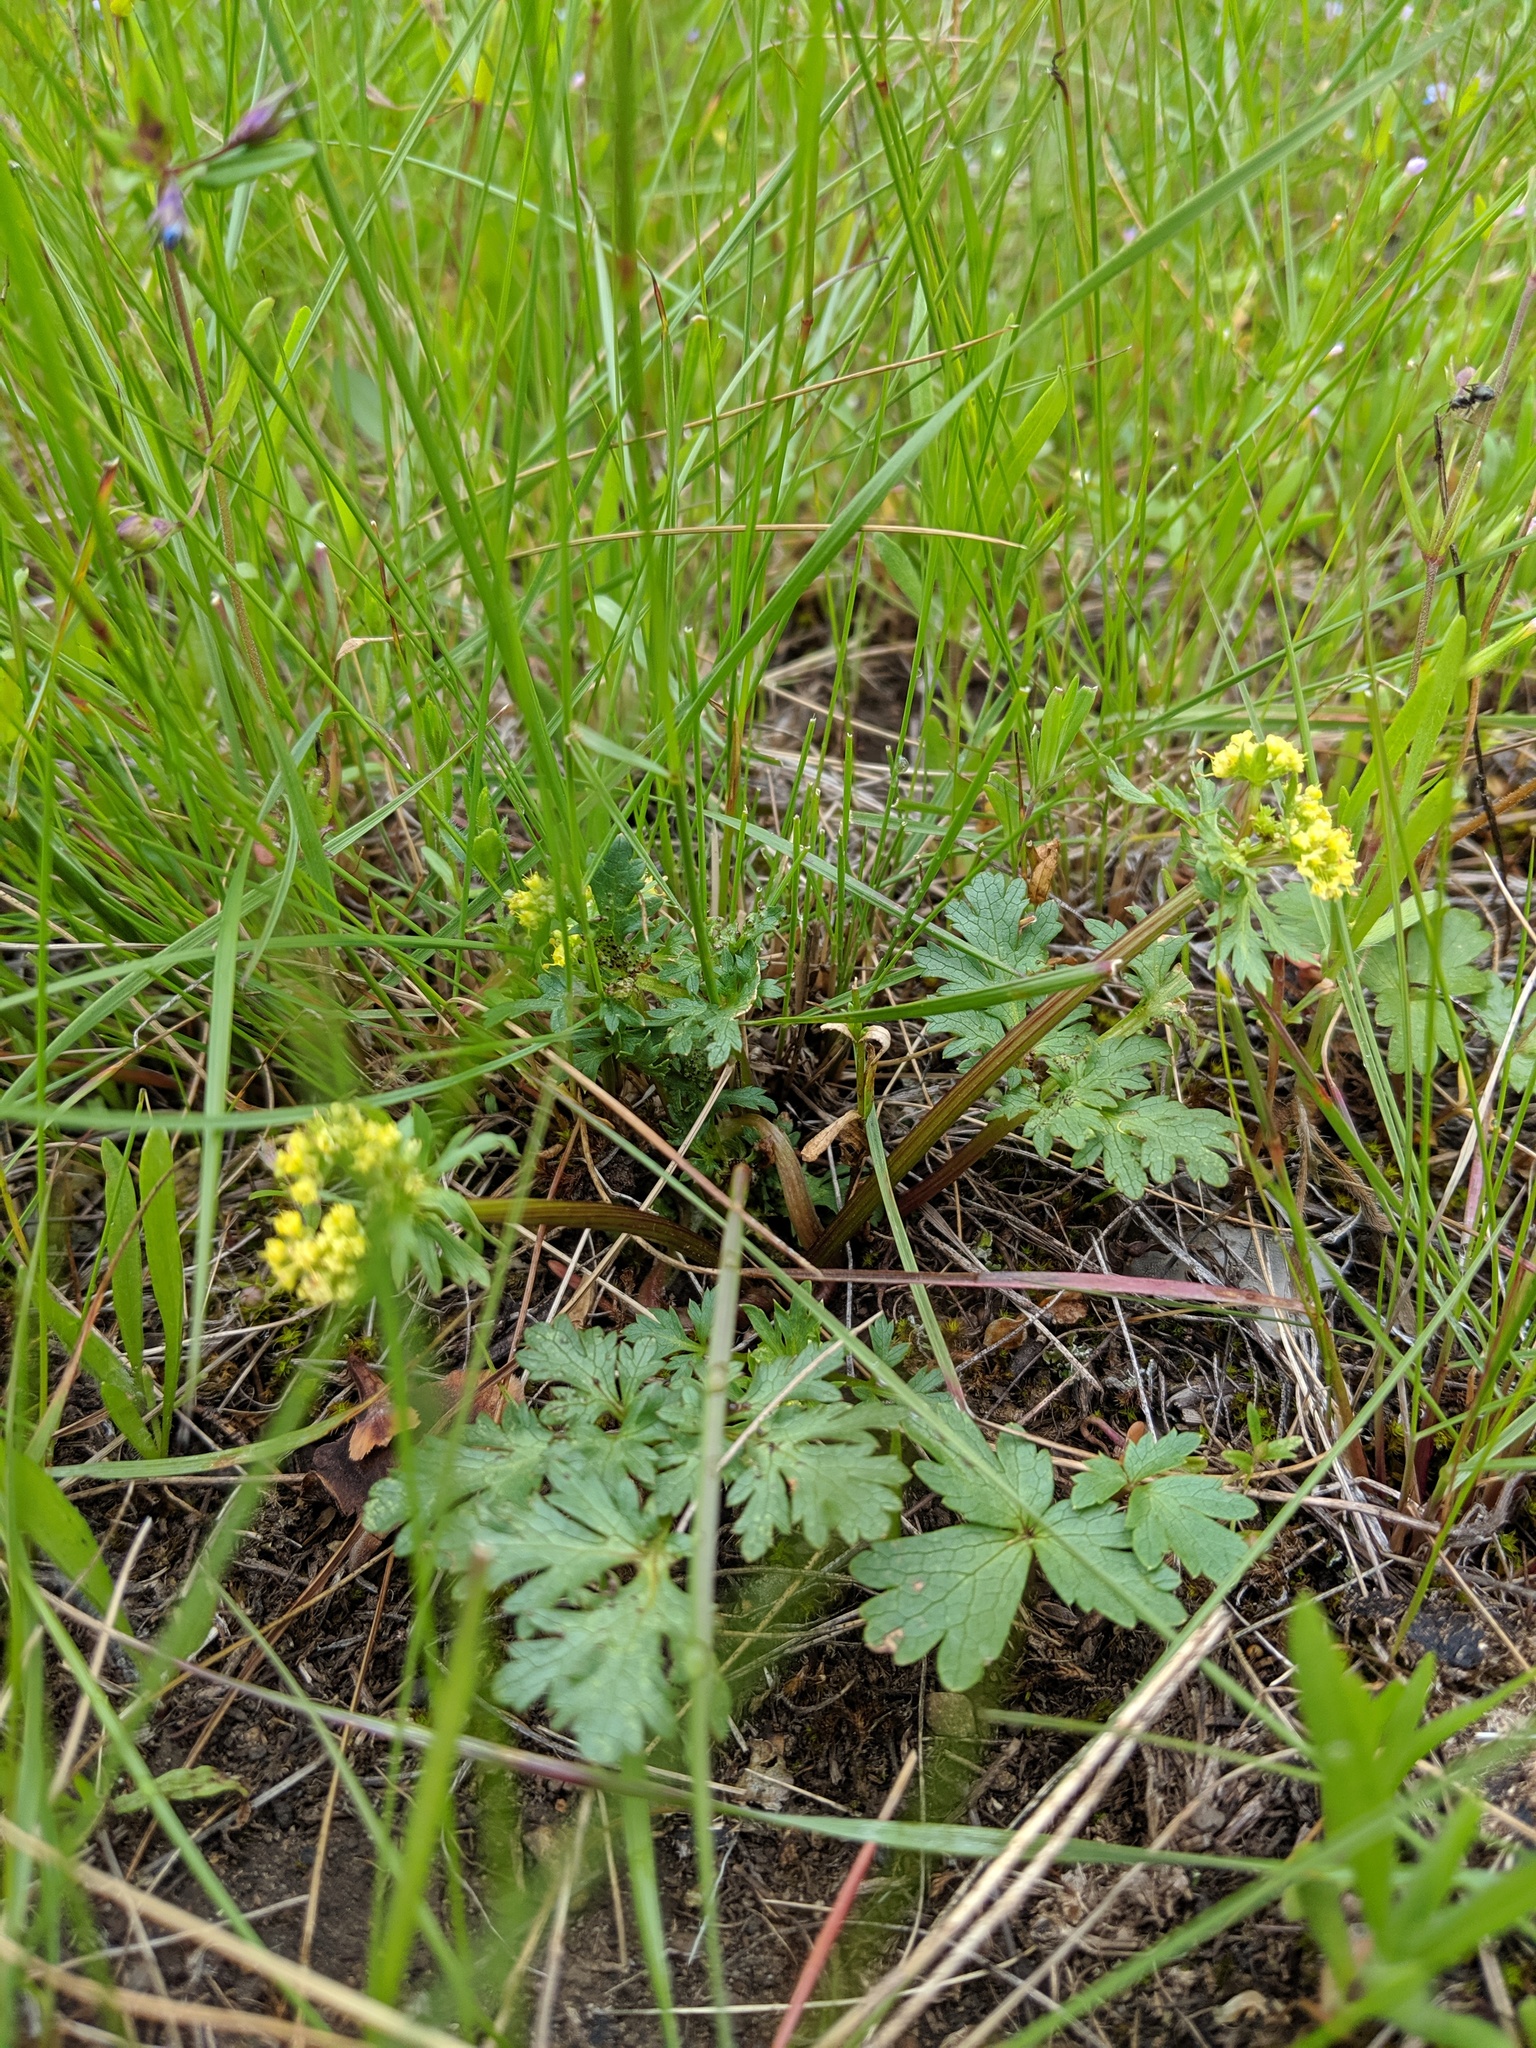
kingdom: Plantae
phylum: Tracheophyta
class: Magnoliopsida
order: Apiales
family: Apiaceae
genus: Sanicula
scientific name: Sanicula graveolens
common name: Sierra sanicle
